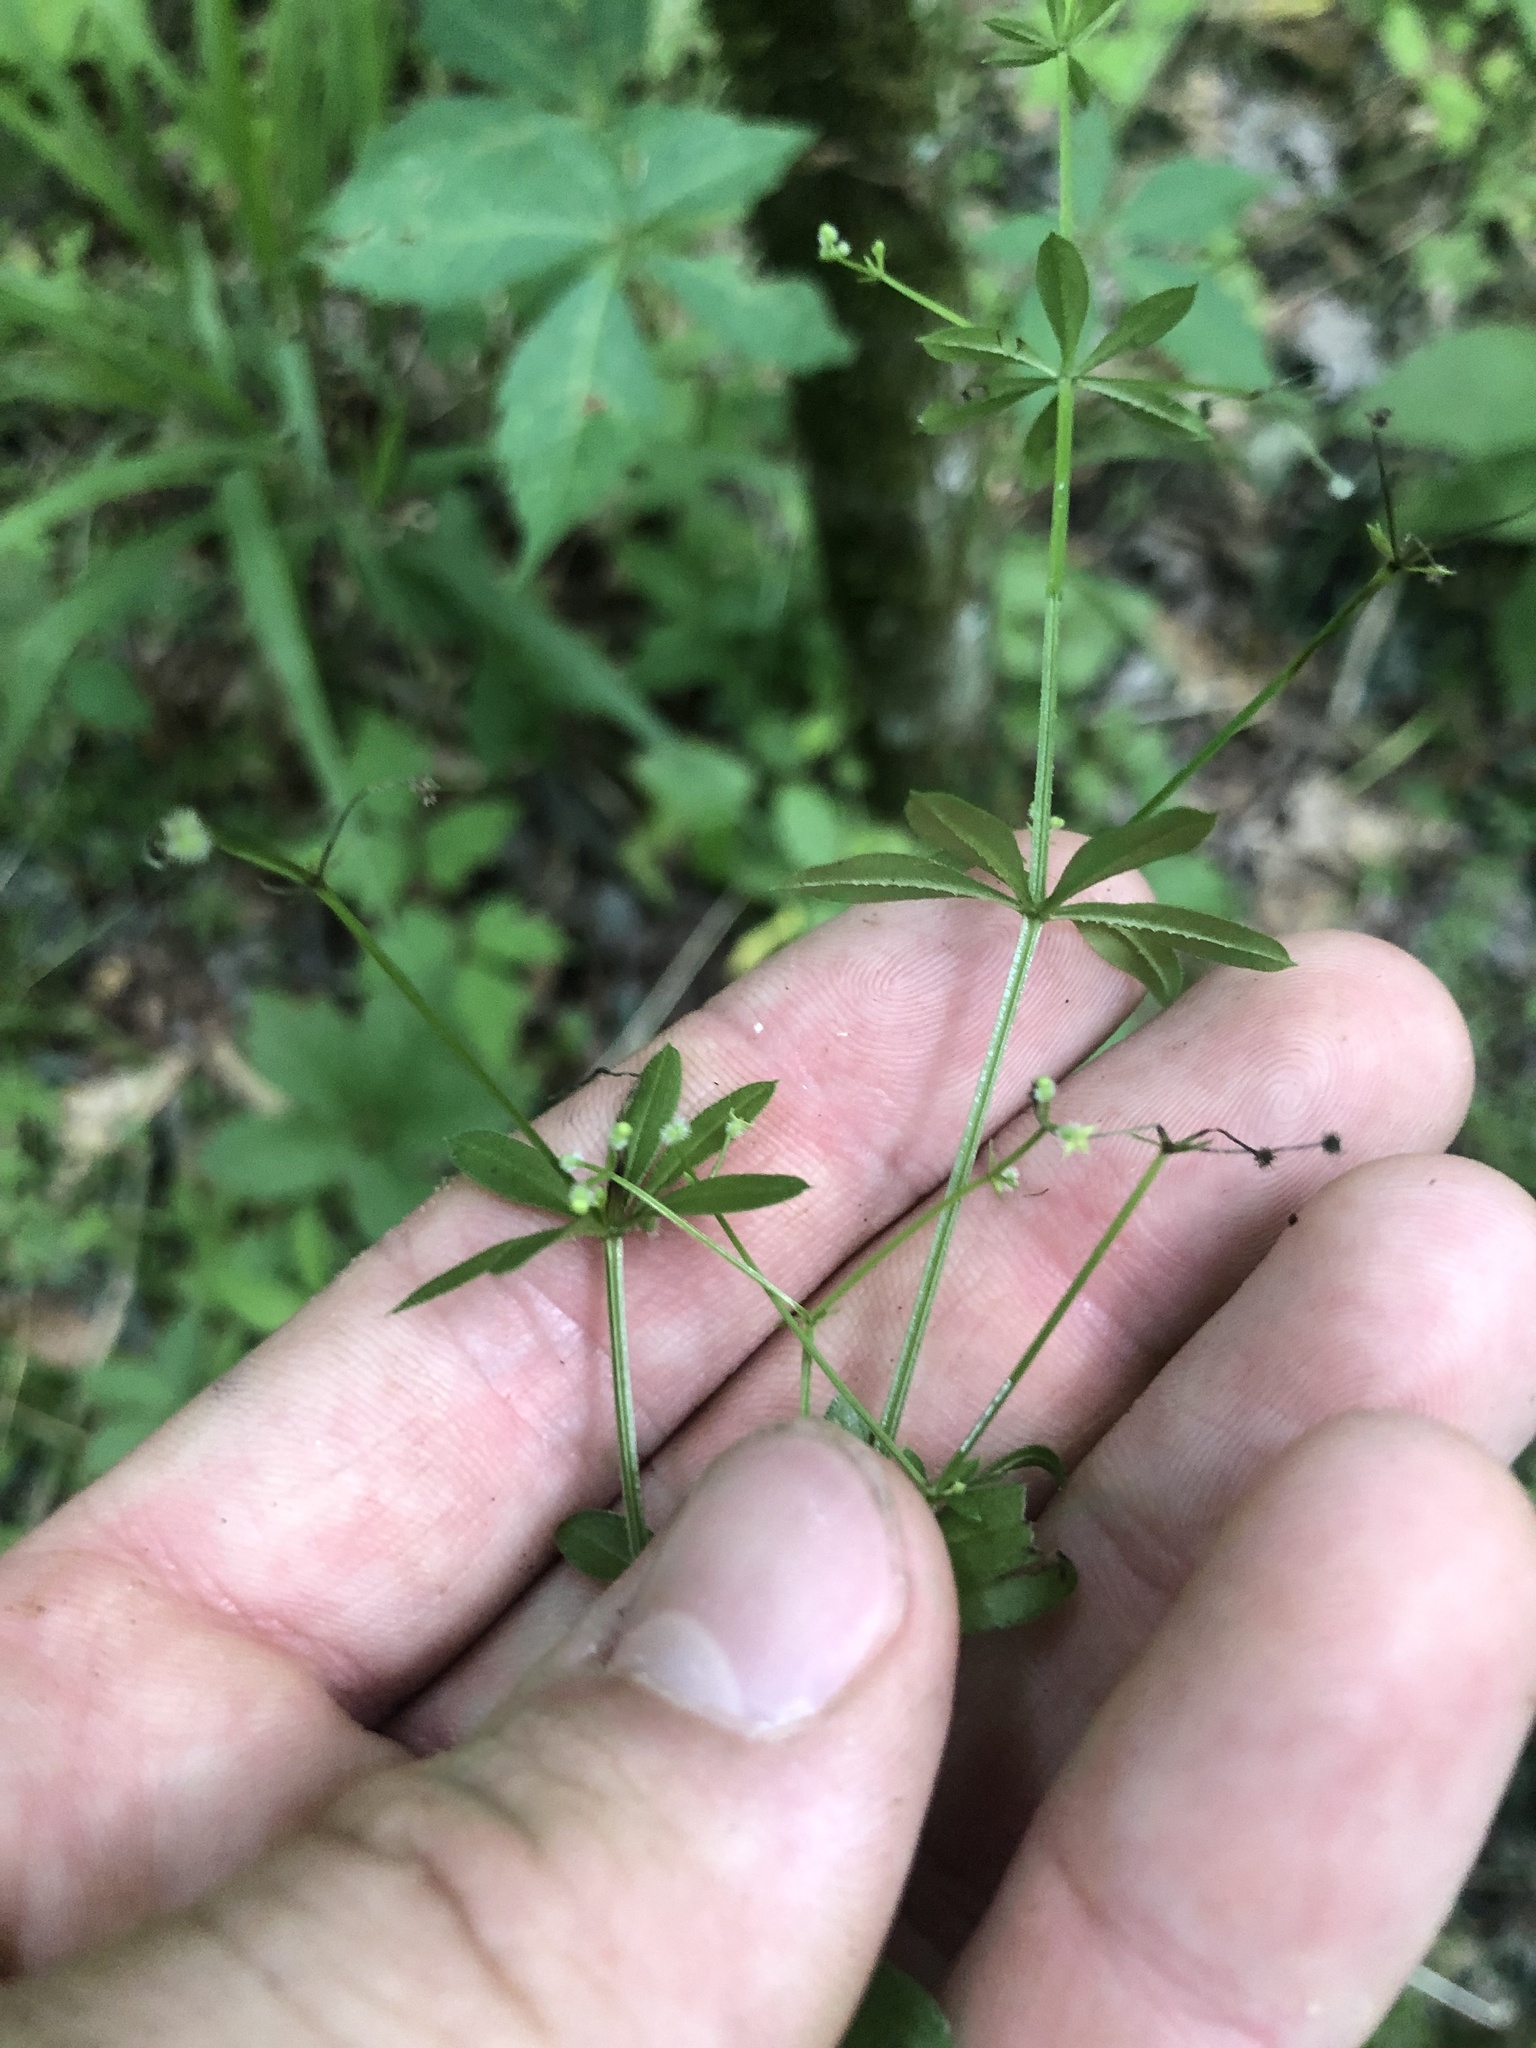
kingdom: Plantae
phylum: Tracheophyta
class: Magnoliopsida
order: Gentianales
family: Rubiaceae
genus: Galium
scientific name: Galium triflorum
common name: Fragrant bedstraw
